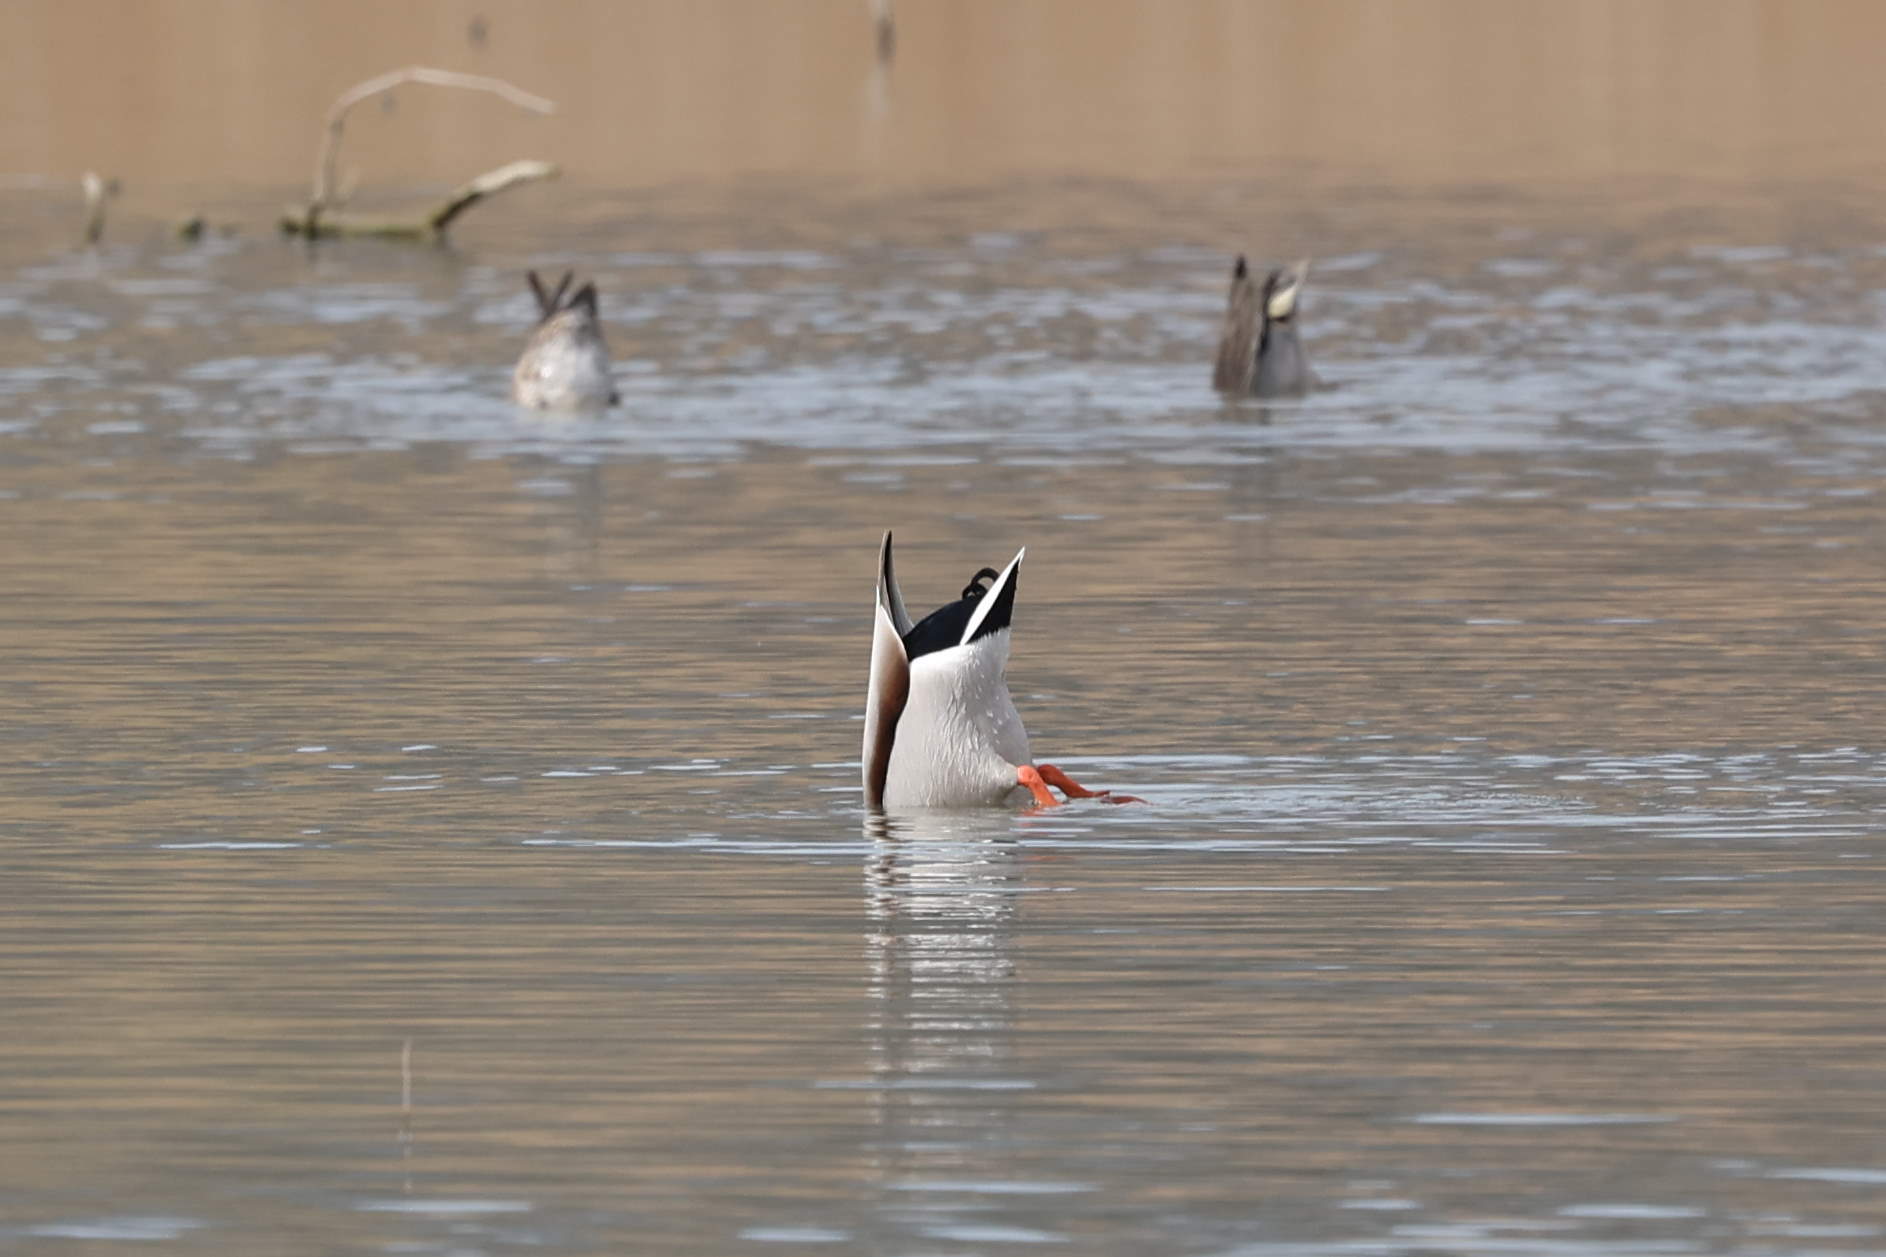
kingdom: Animalia
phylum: Chordata
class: Aves
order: Anseriformes
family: Anatidae
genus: Anas
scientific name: Anas platyrhynchos
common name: Mallard
